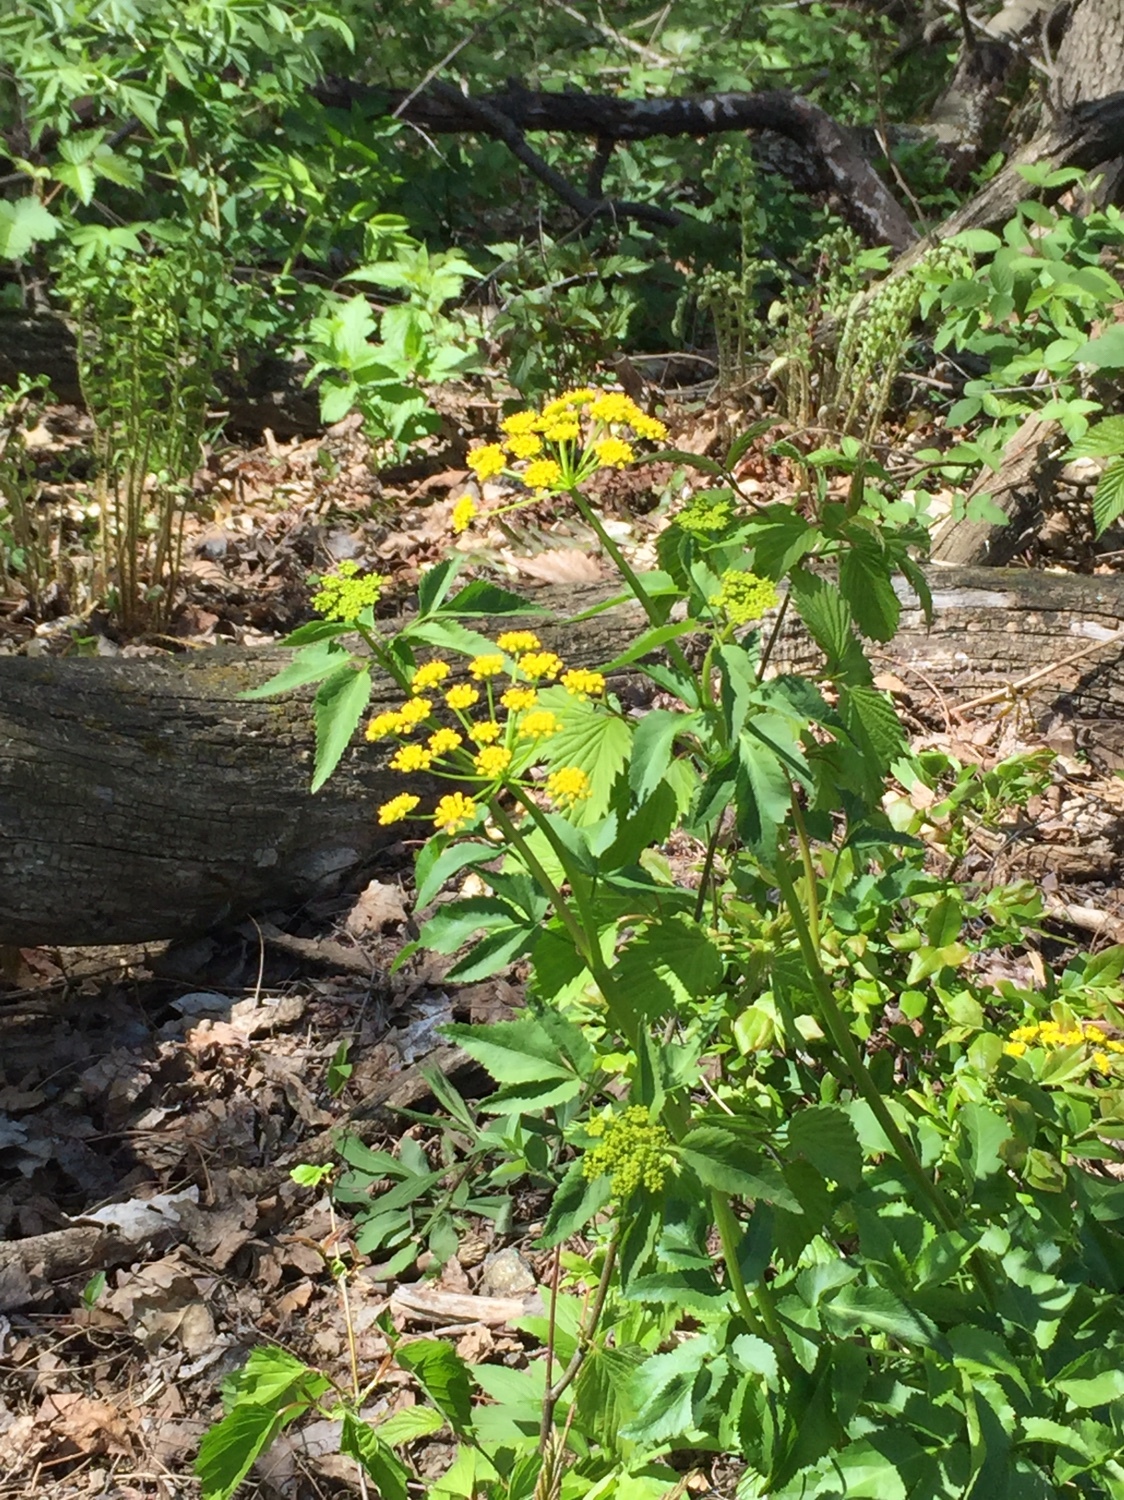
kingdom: Plantae
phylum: Tracheophyta
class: Magnoliopsida
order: Apiales
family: Apiaceae
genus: Zizia
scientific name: Zizia aurea
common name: Golden alexanders
